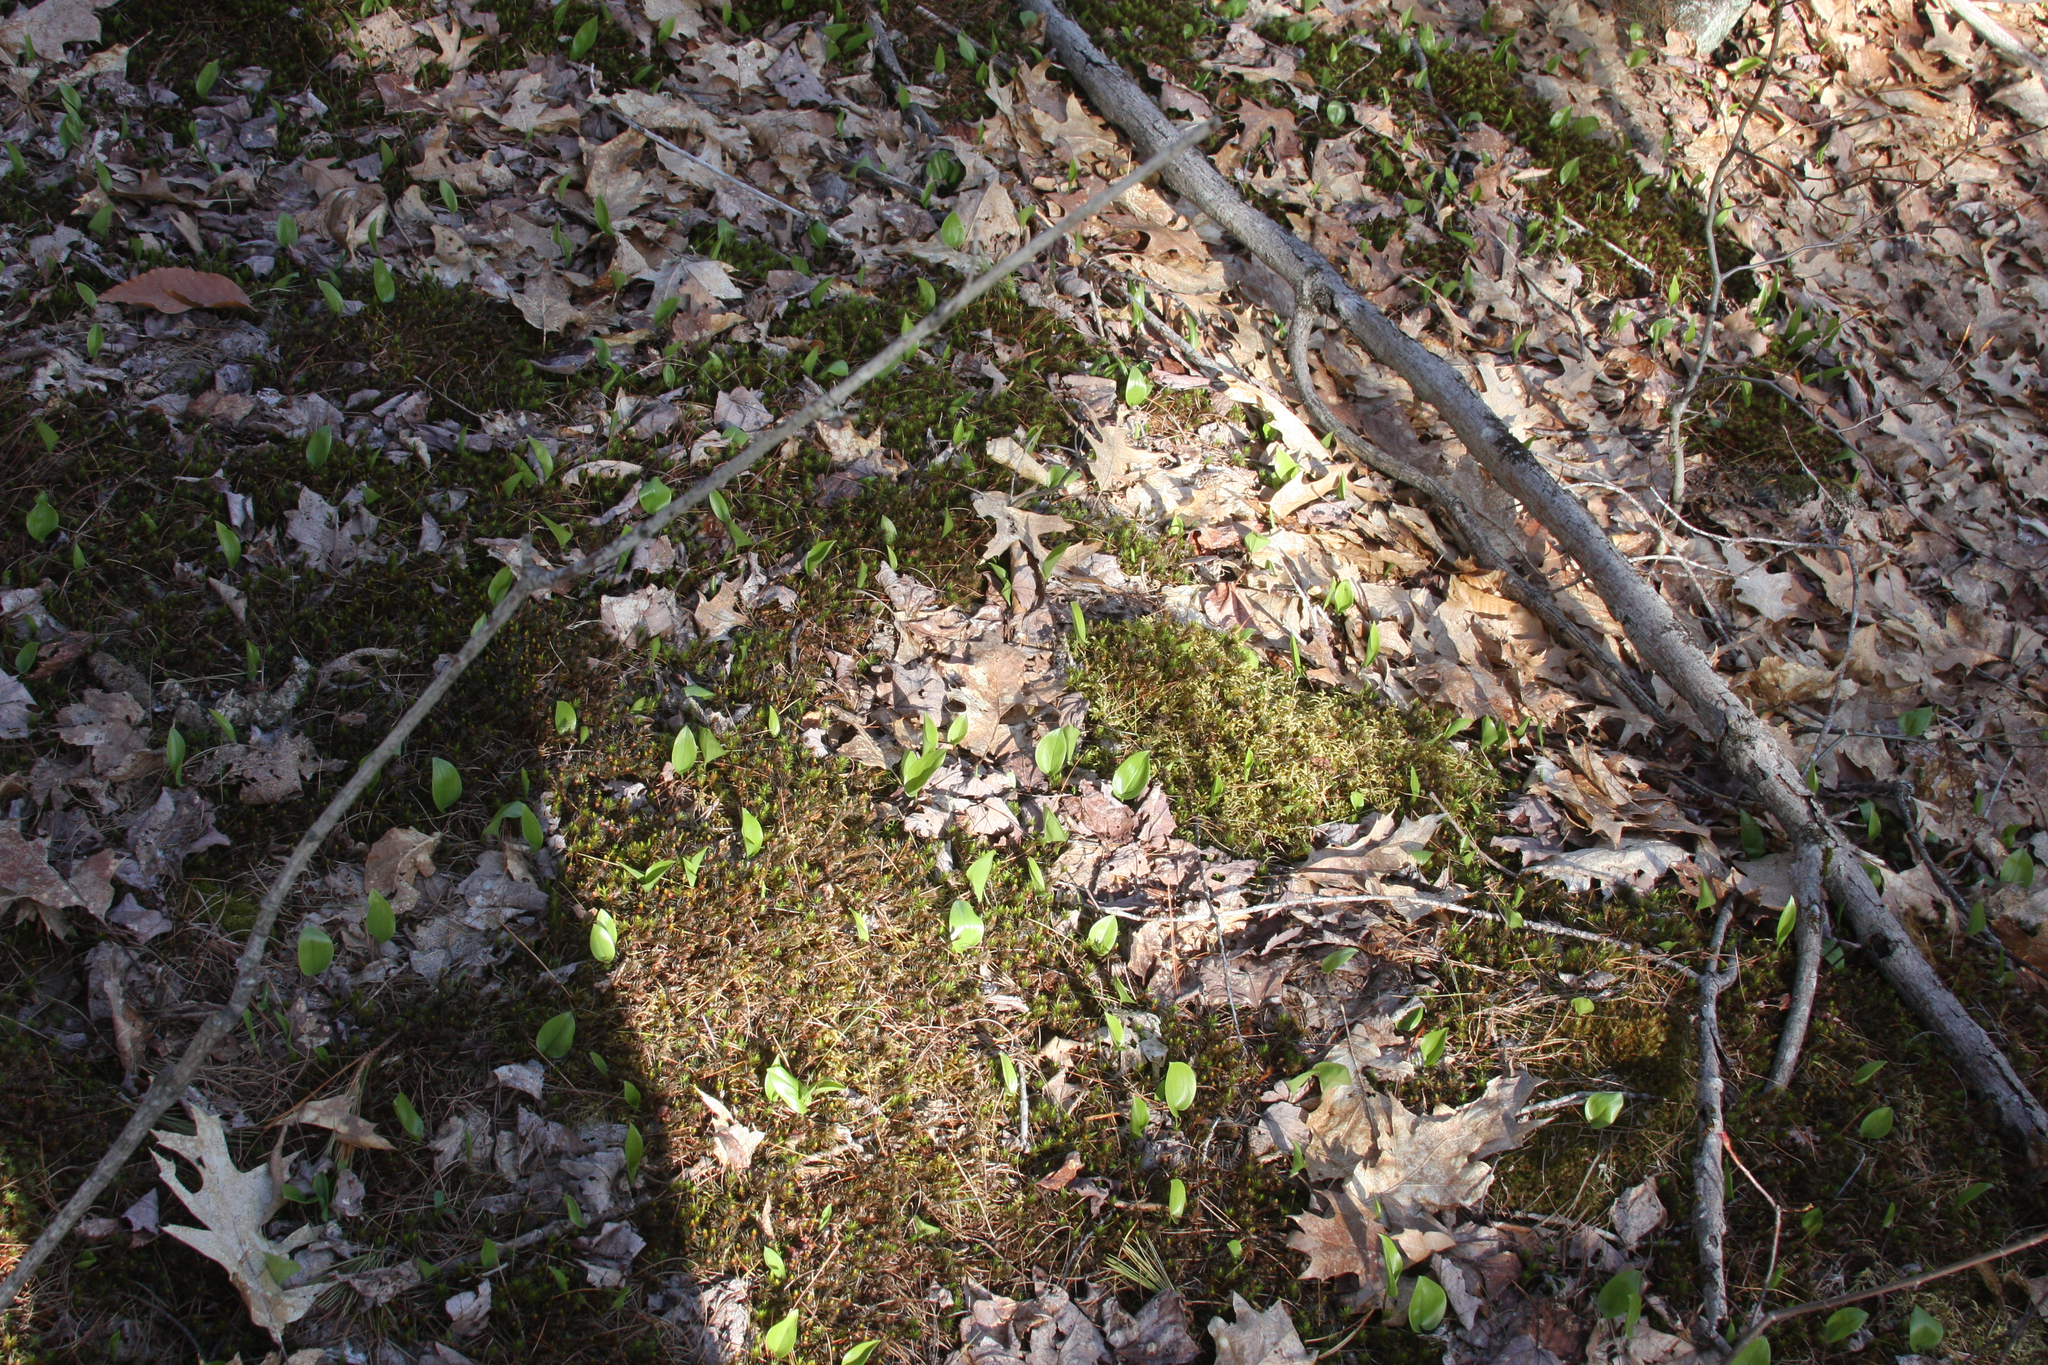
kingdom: Plantae
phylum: Tracheophyta
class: Liliopsida
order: Asparagales
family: Asparagaceae
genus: Maianthemum
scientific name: Maianthemum canadense
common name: False lily-of-the-valley
